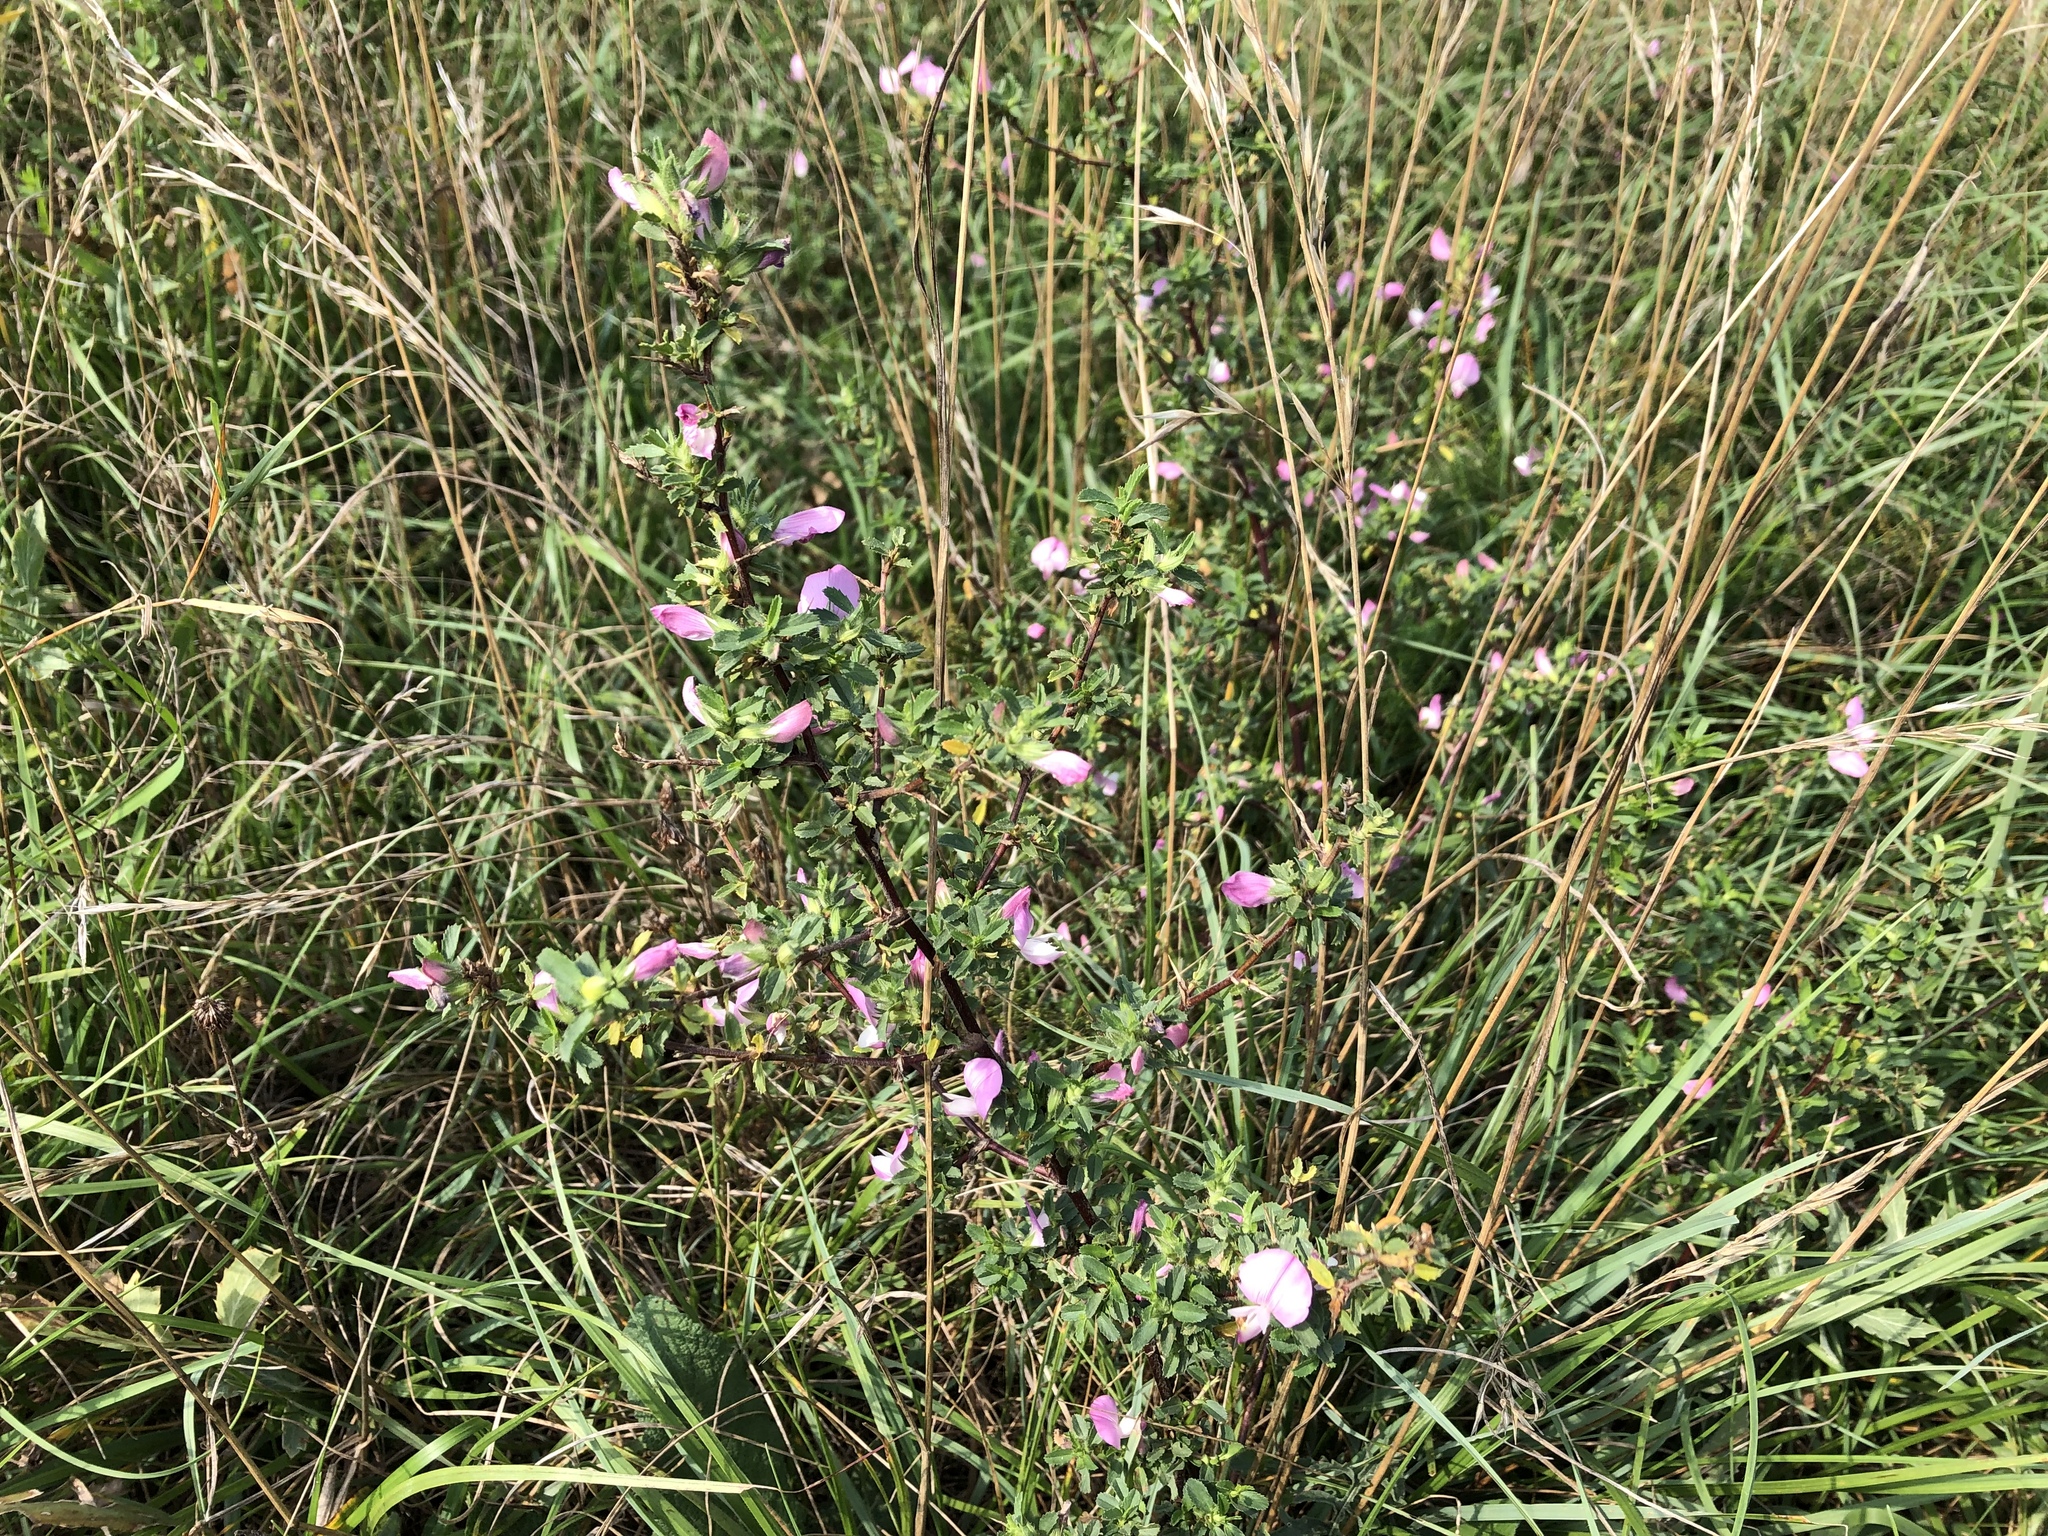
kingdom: Plantae
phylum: Tracheophyta
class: Magnoliopsida
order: Fabales
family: Fabaceae
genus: Ononis
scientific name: Ononis spinosa
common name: Spiny restharrow
